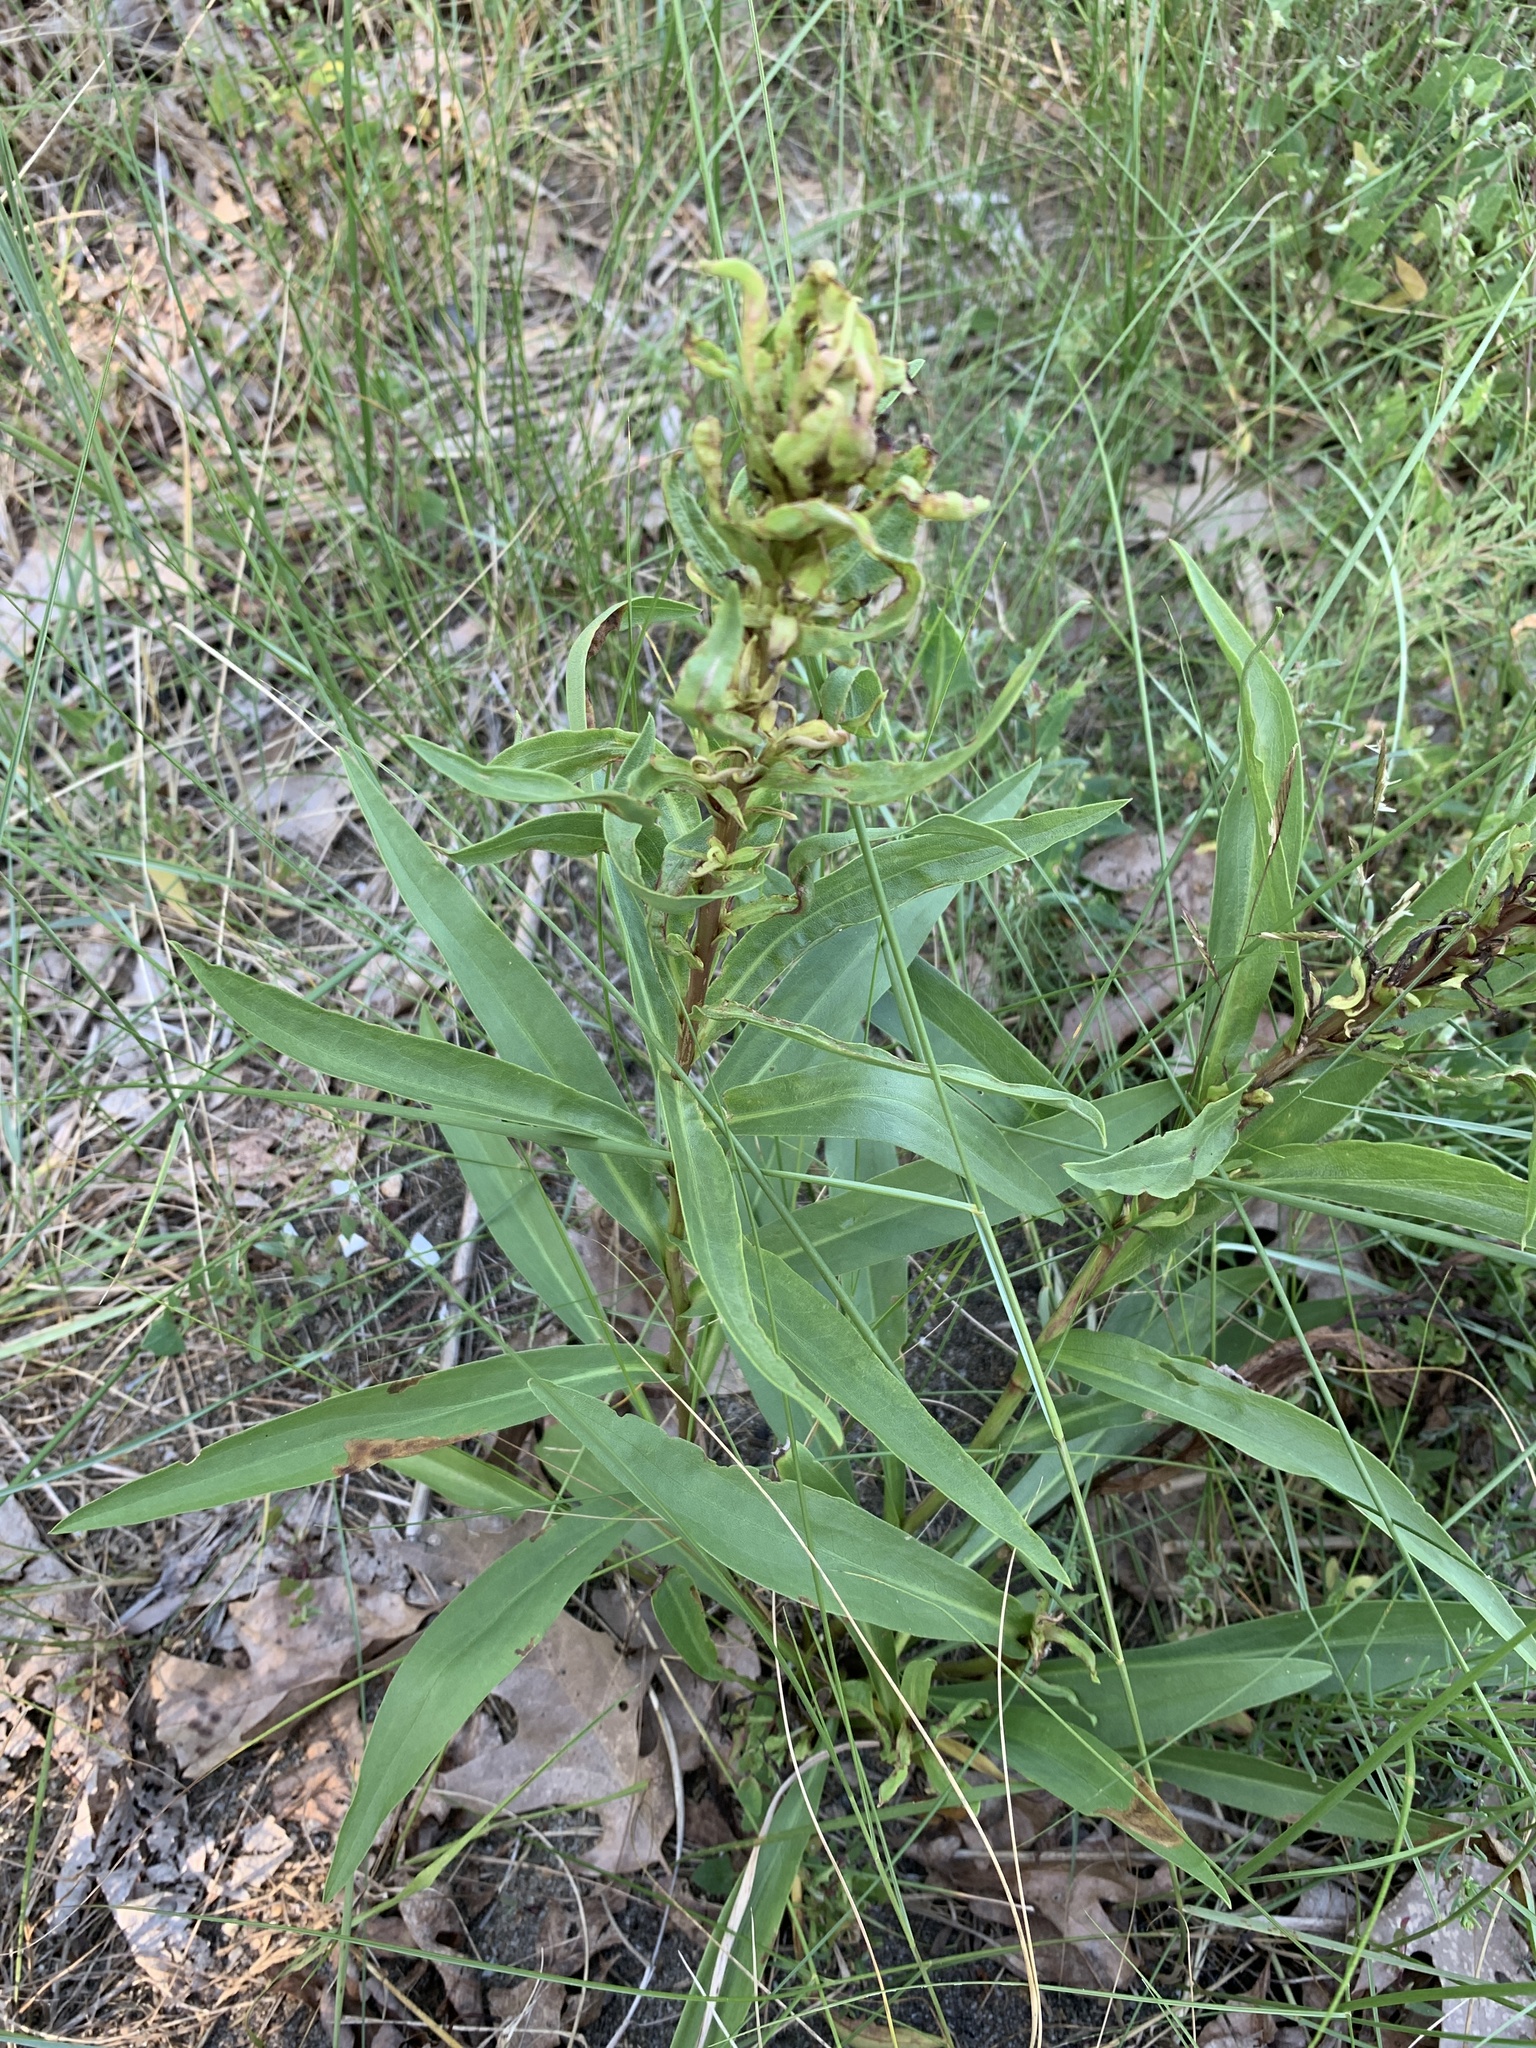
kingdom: Plantae
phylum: Tracheophyta
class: Magnoliopsida
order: Asterales
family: Asteraceae
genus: Solidago
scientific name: Solidago sempervirens
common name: Salt-marsh goldenrod
